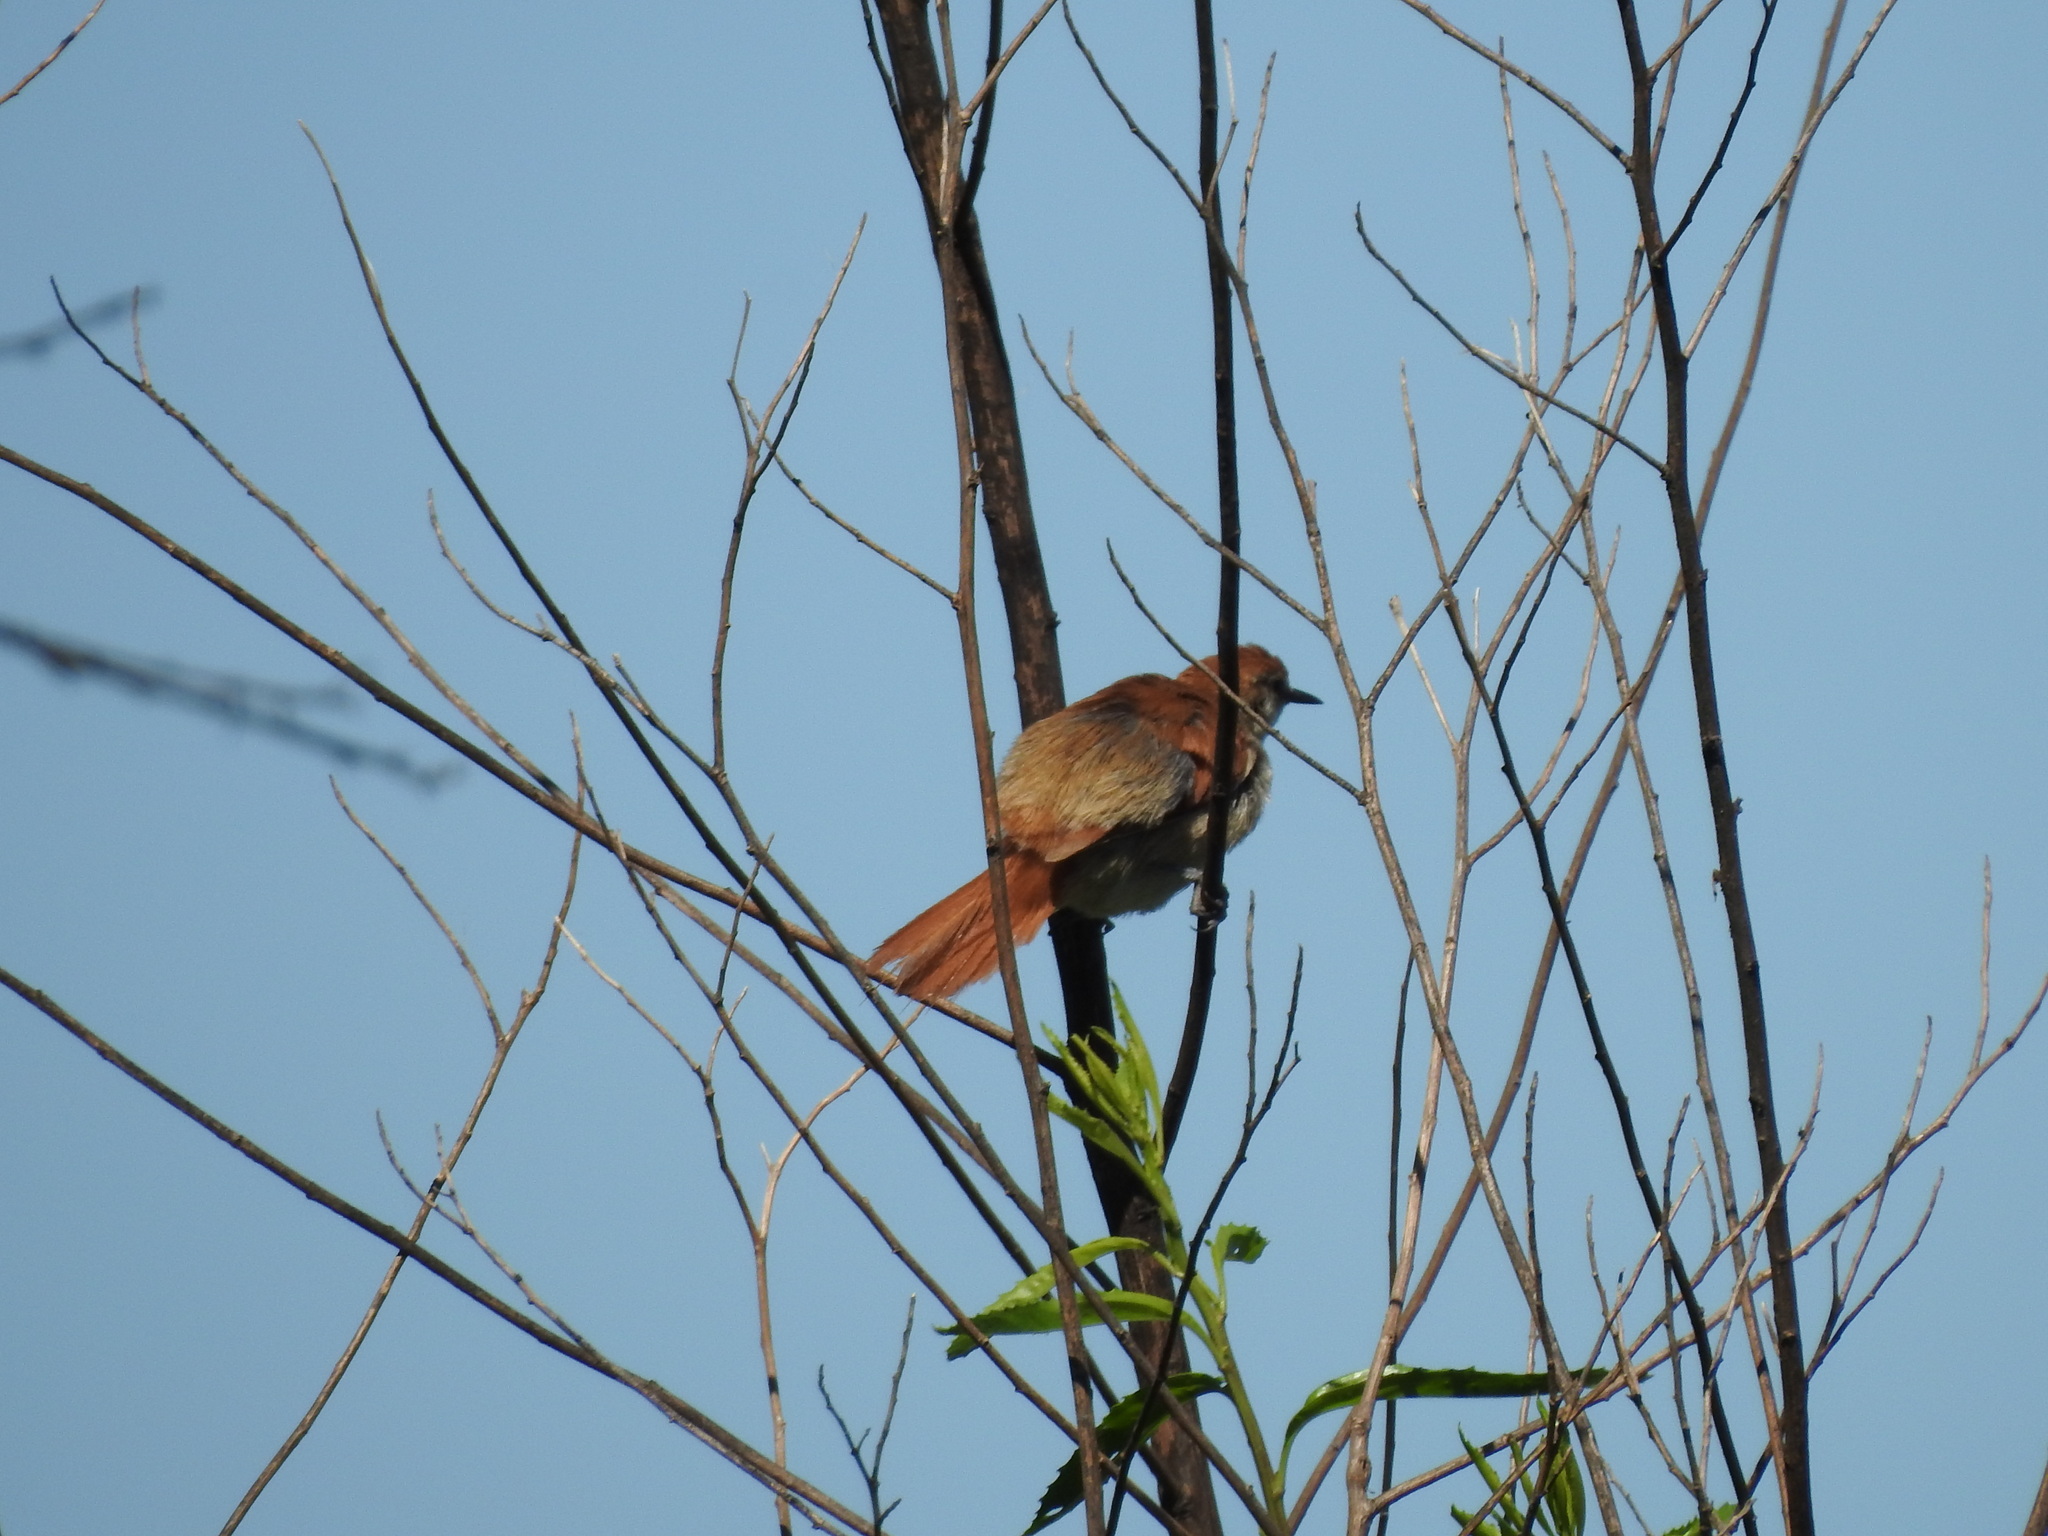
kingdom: Animalia
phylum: Chordata
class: Aves
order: Passeriformes
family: Furnariidae
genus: Certhiaxis
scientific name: Certhiaxis cinnamomeus
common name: Yellow-chinned spinetail
